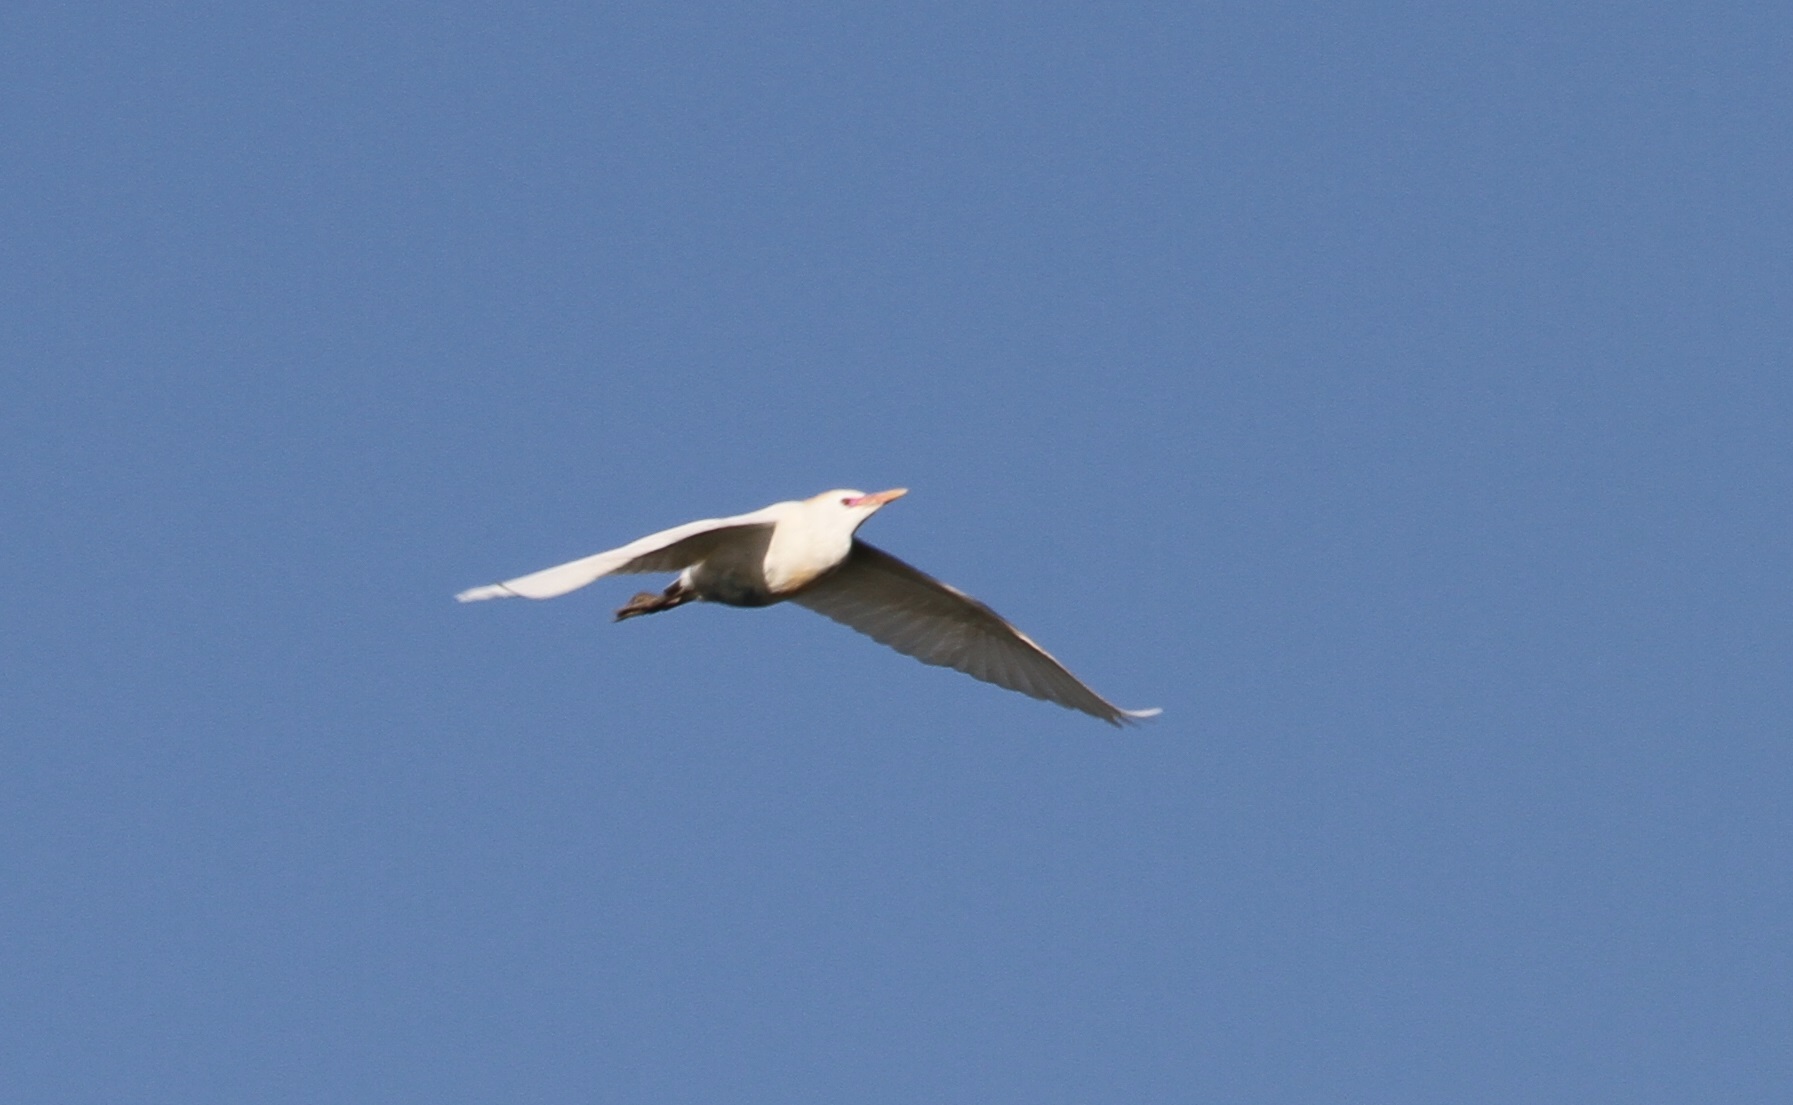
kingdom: Animalia
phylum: Chordata
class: Aves
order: Pelecaniformes
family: Ardeidae
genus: Bubulcus
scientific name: Bubulcus ibis
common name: Cattle egret
